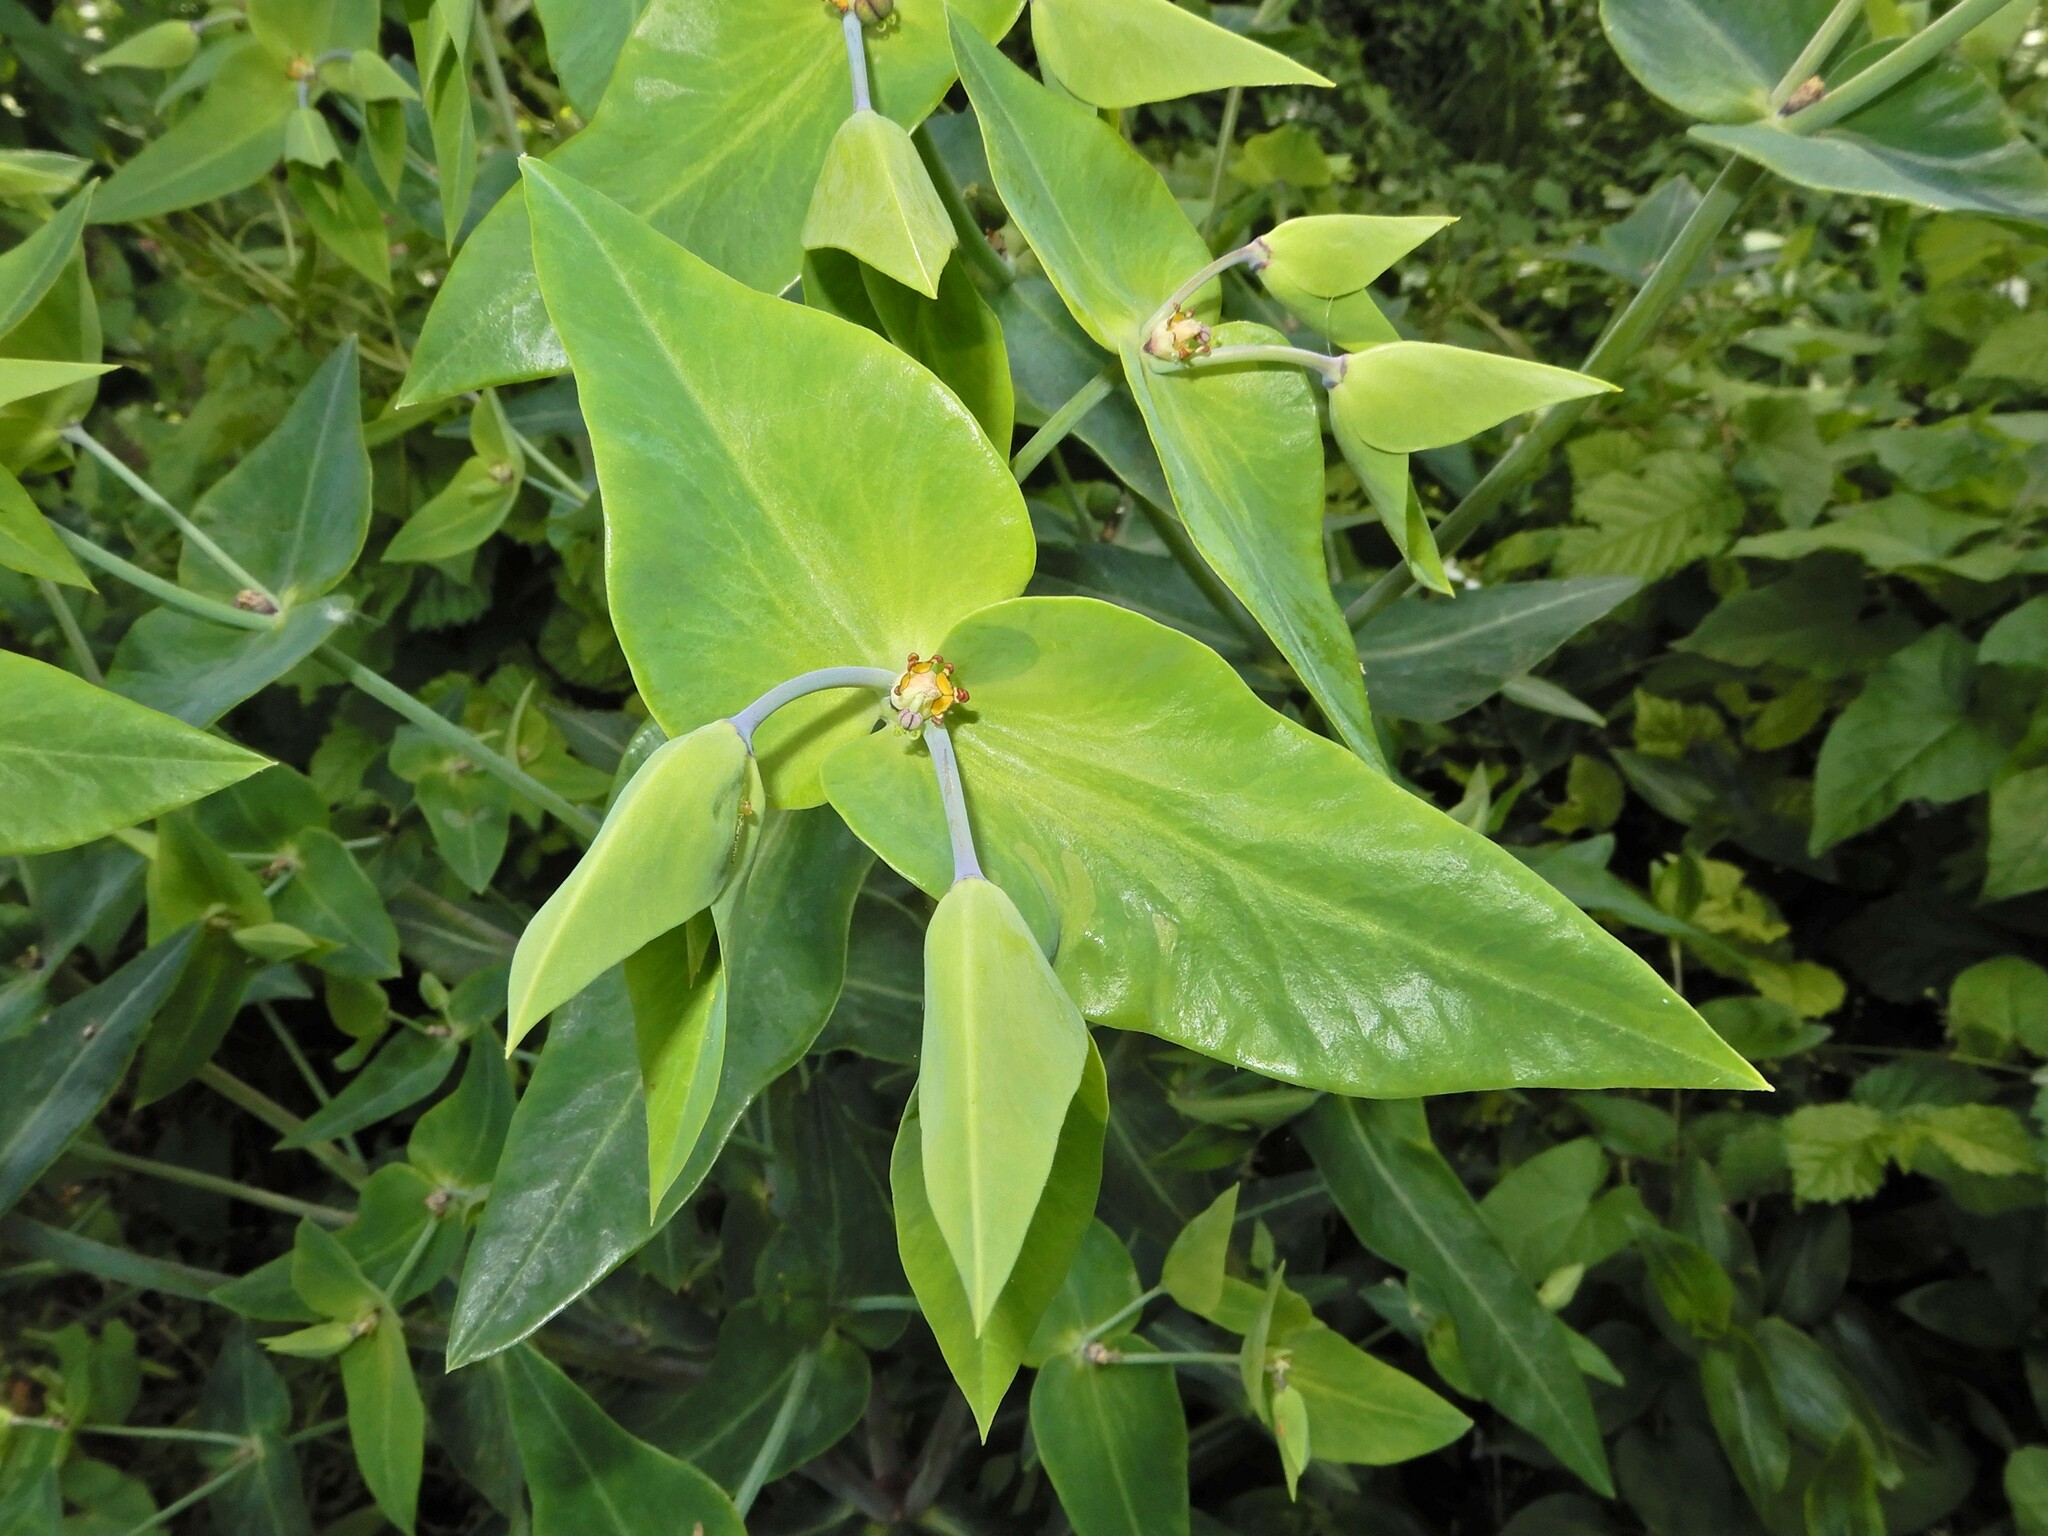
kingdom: Plantae
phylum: Tracheophyta
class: Magnoliopsida
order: Malpighiales
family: Euphorbiaceae
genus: Euphorbia
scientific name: Euphorbia lathyris
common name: Caper spurge
